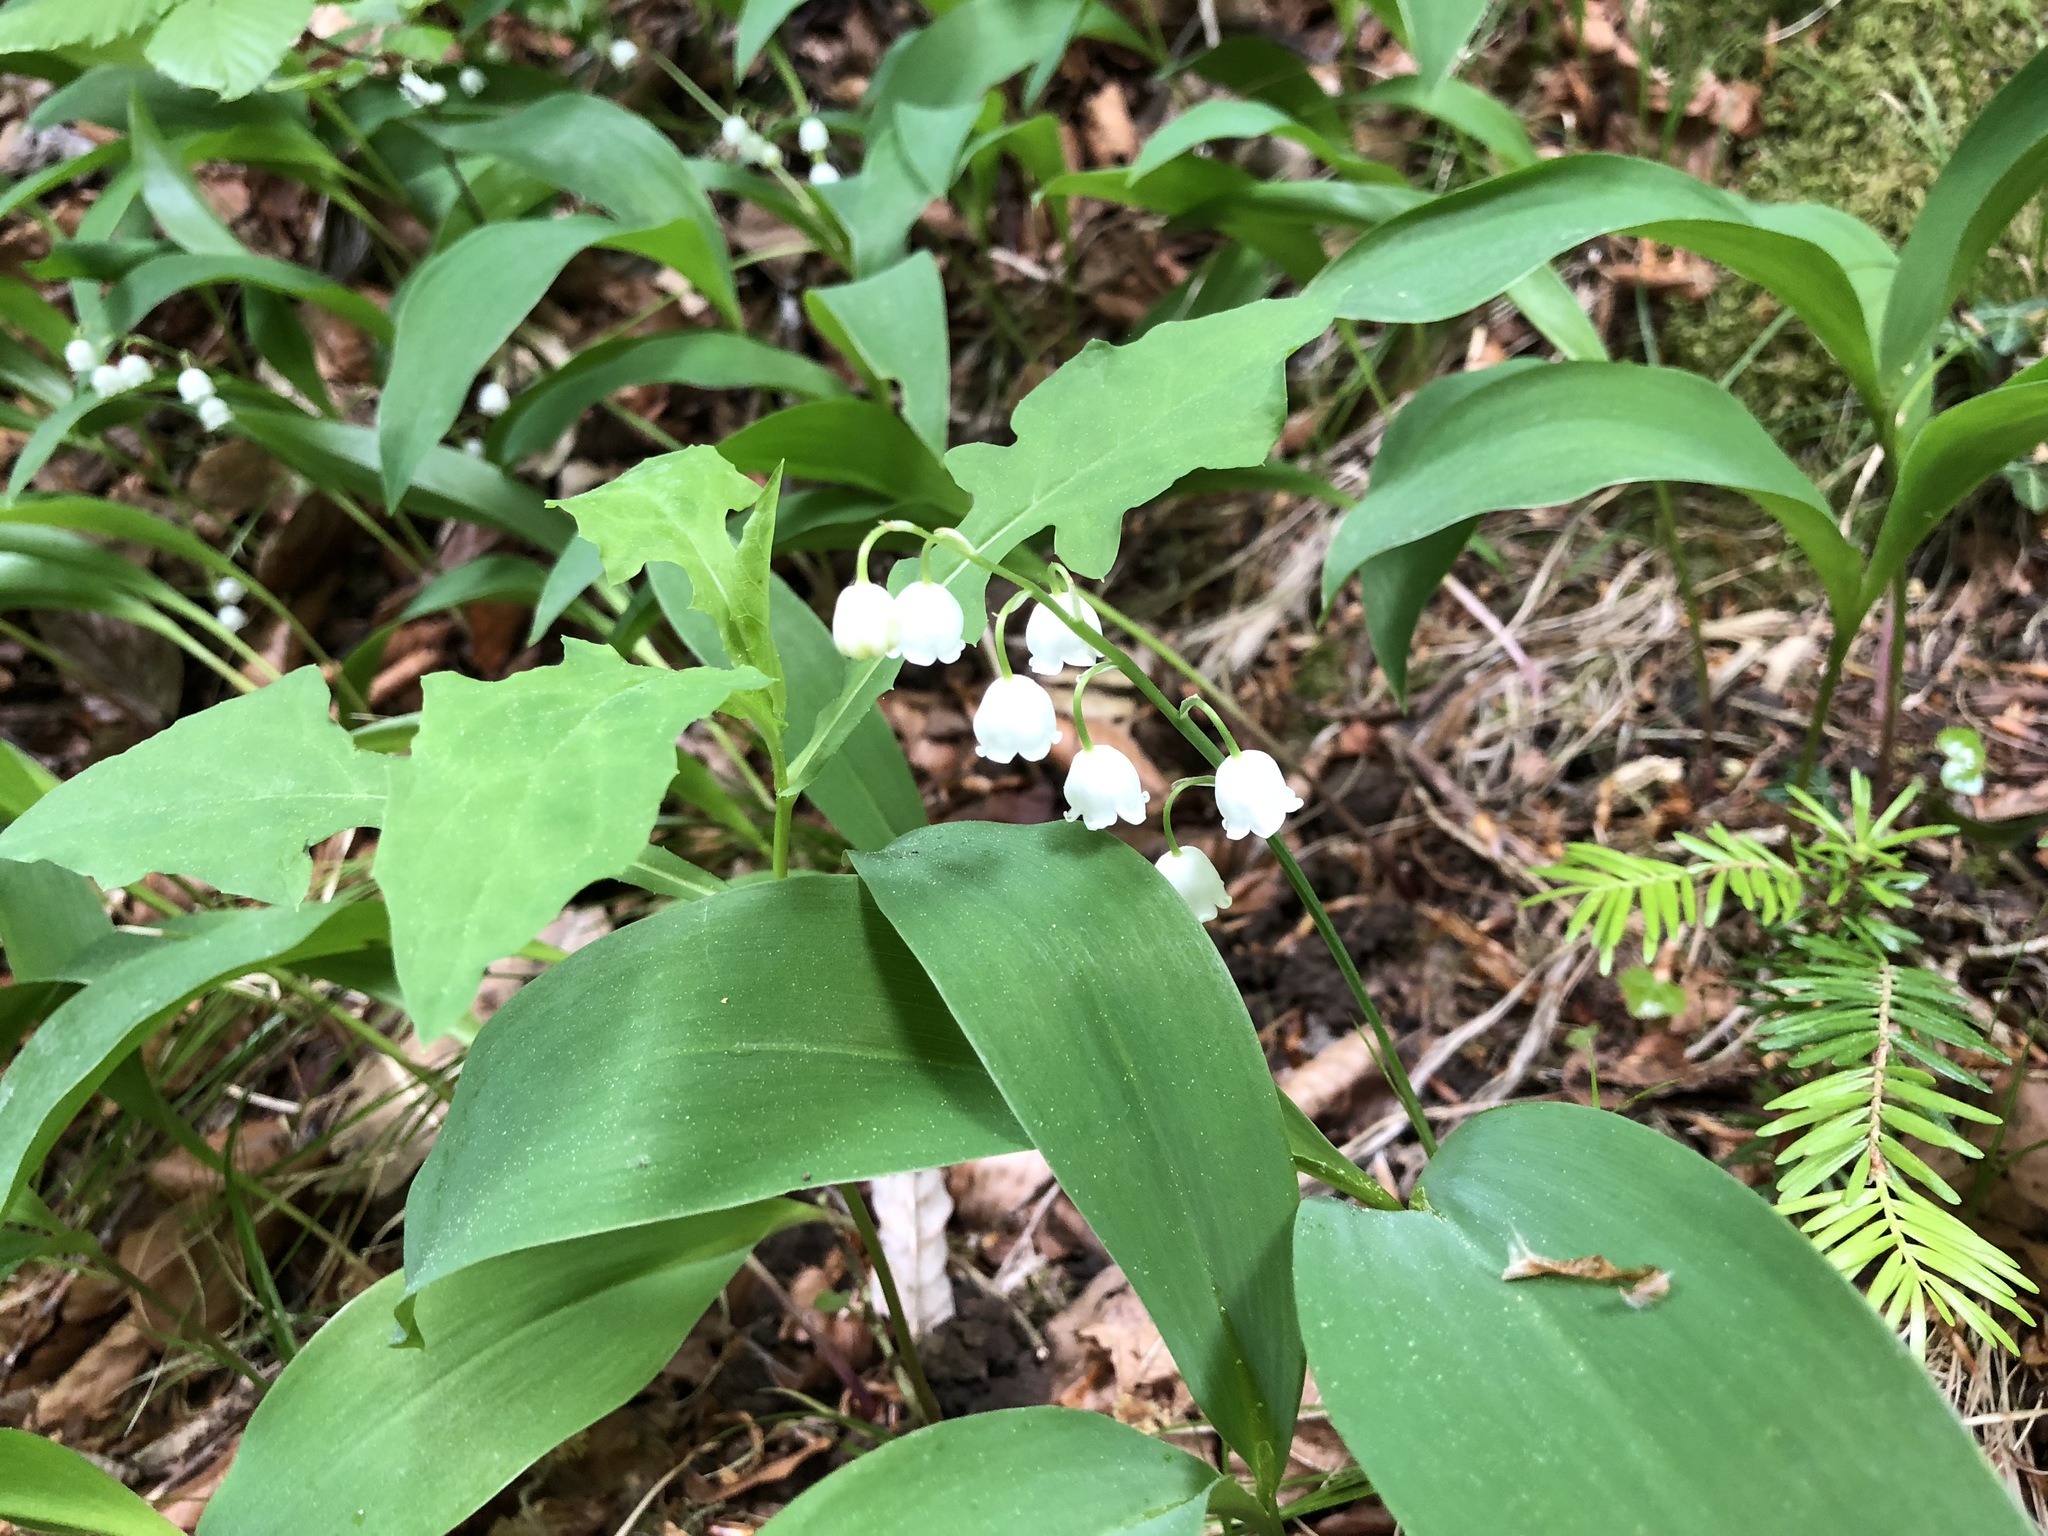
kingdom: Plantae
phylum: Tracheophyta
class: Liliopsida
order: Asparagales
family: Asparagaceae
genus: Convallaria
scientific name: Convallaria majalis
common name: Lily-of-the-valley
